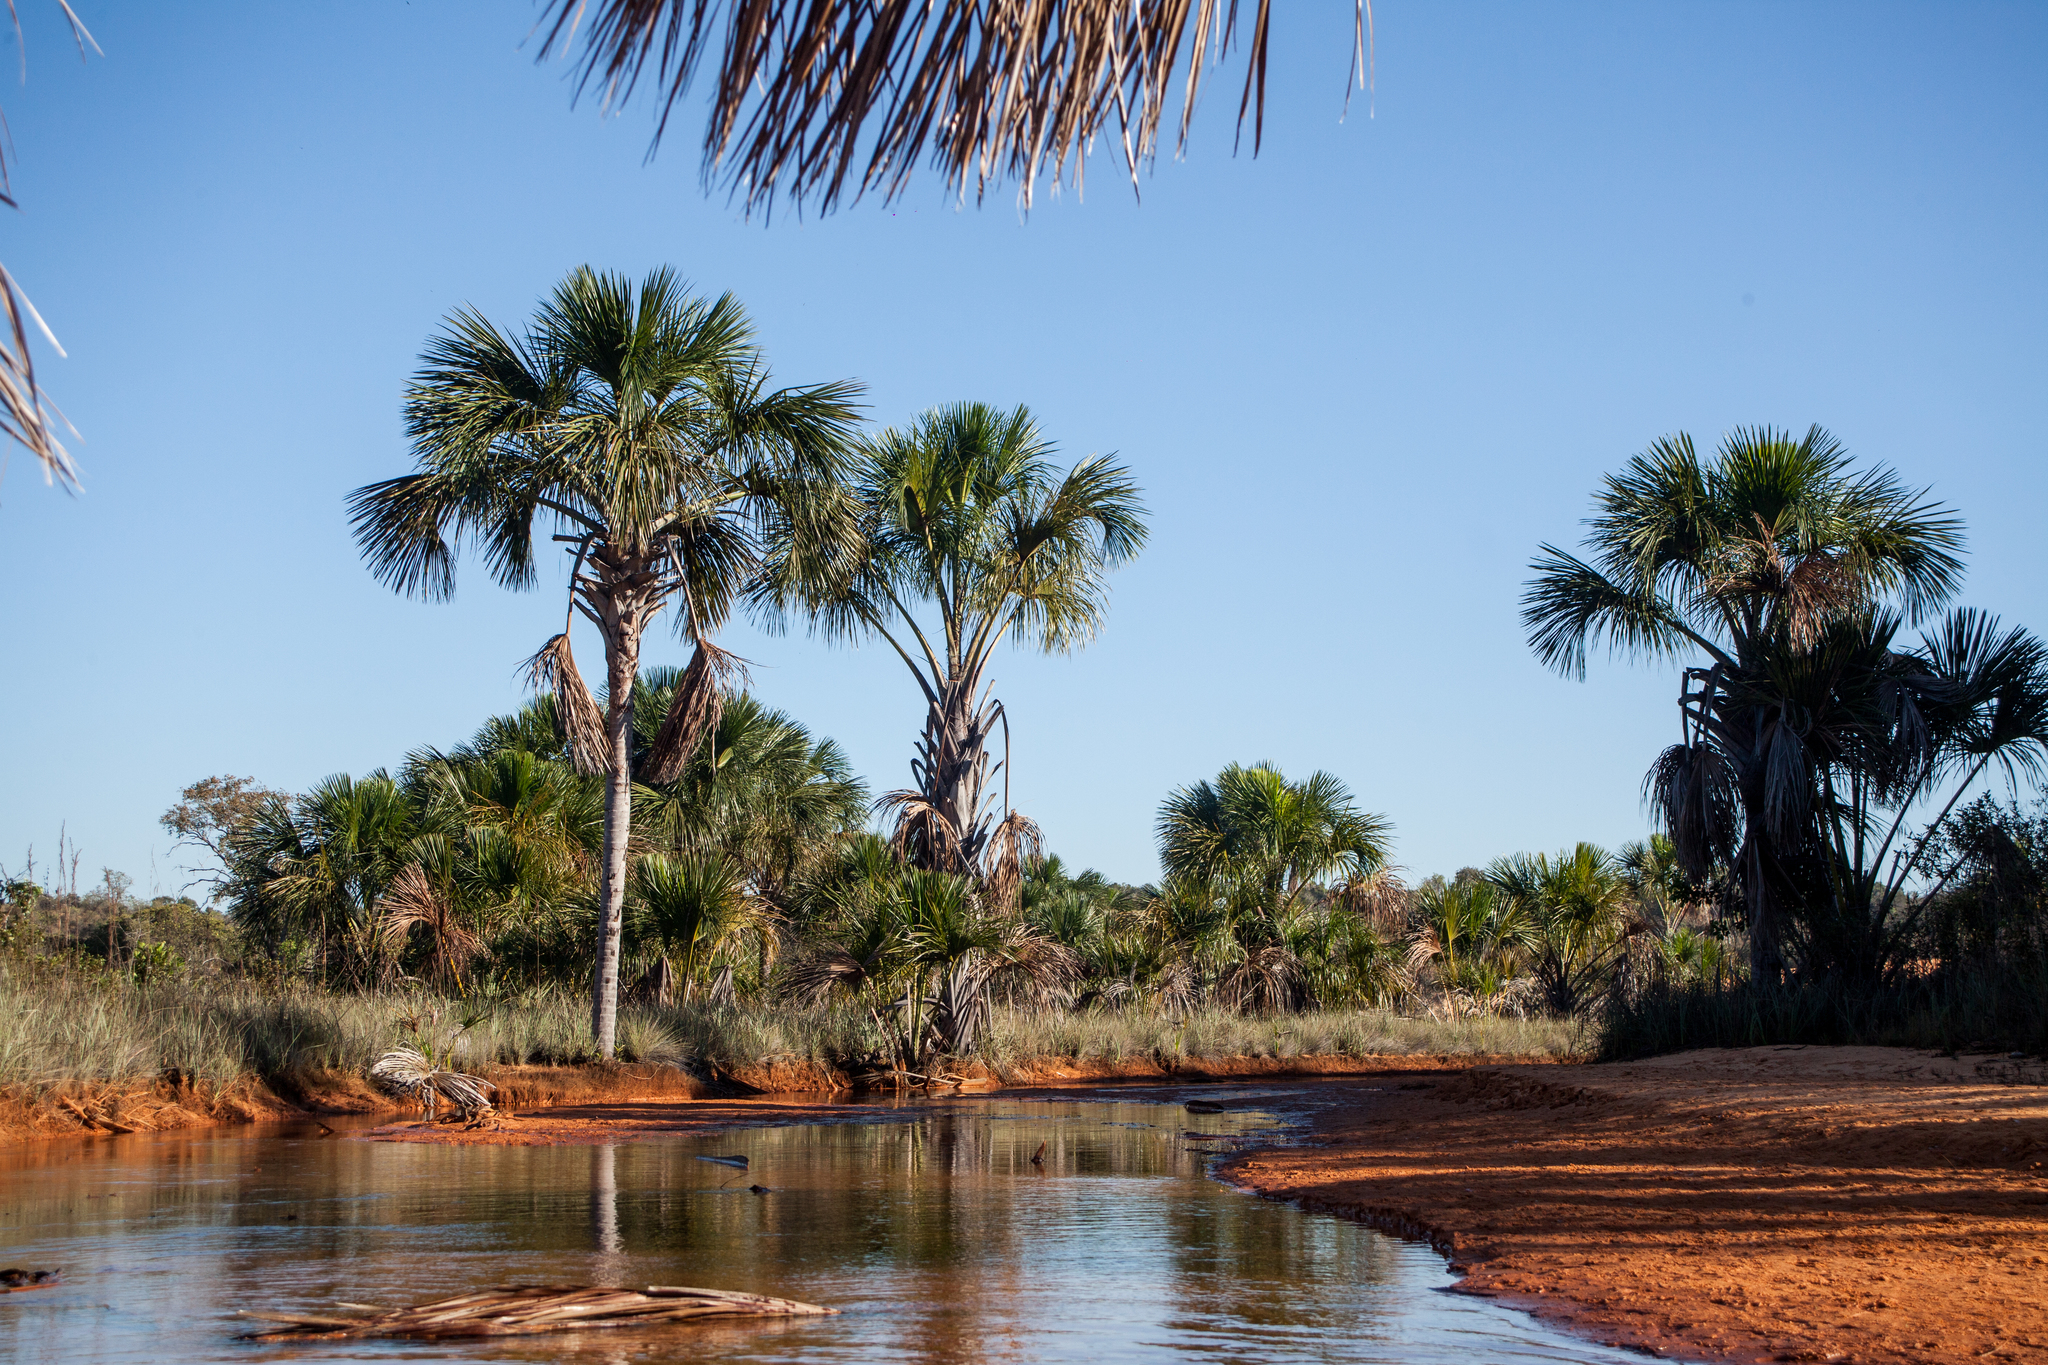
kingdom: Plantae
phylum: Tracheophyta
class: Liliopsida
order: Arecales
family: Arecaceae
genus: Mauritia
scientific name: Mauritia flexuosa
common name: Tree-of-life
